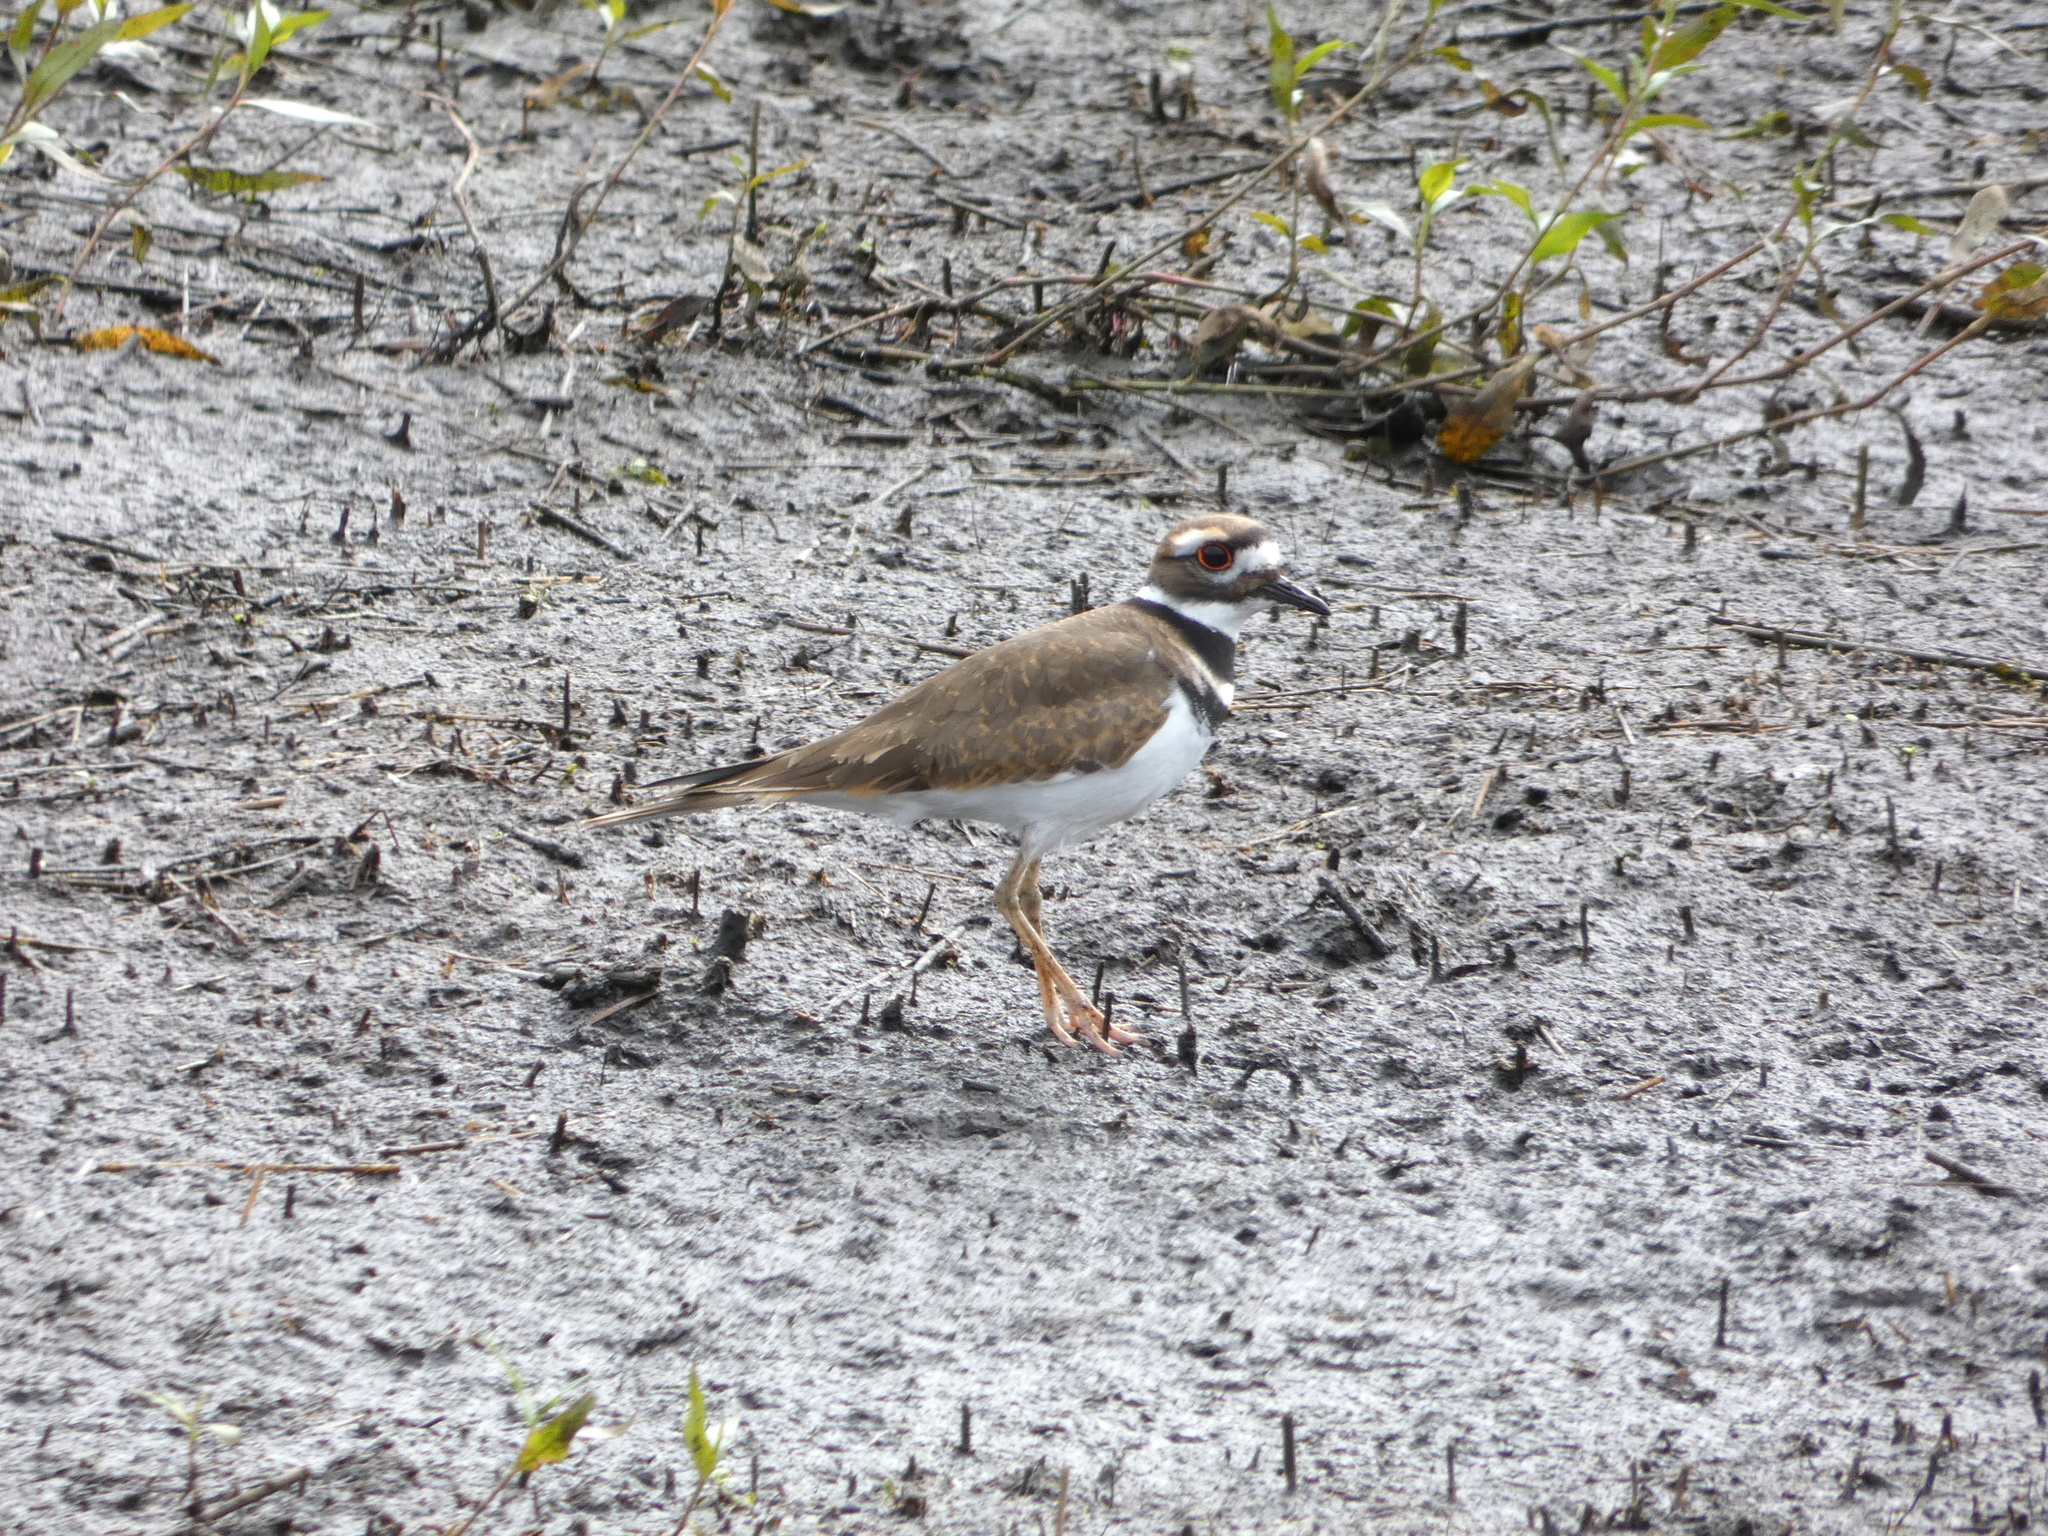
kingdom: Animalia
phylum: Chordata
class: Aves
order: Charadriiformes
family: Charadriidae
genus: Charadrius
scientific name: Charadrius vociferus
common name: Killdeer
